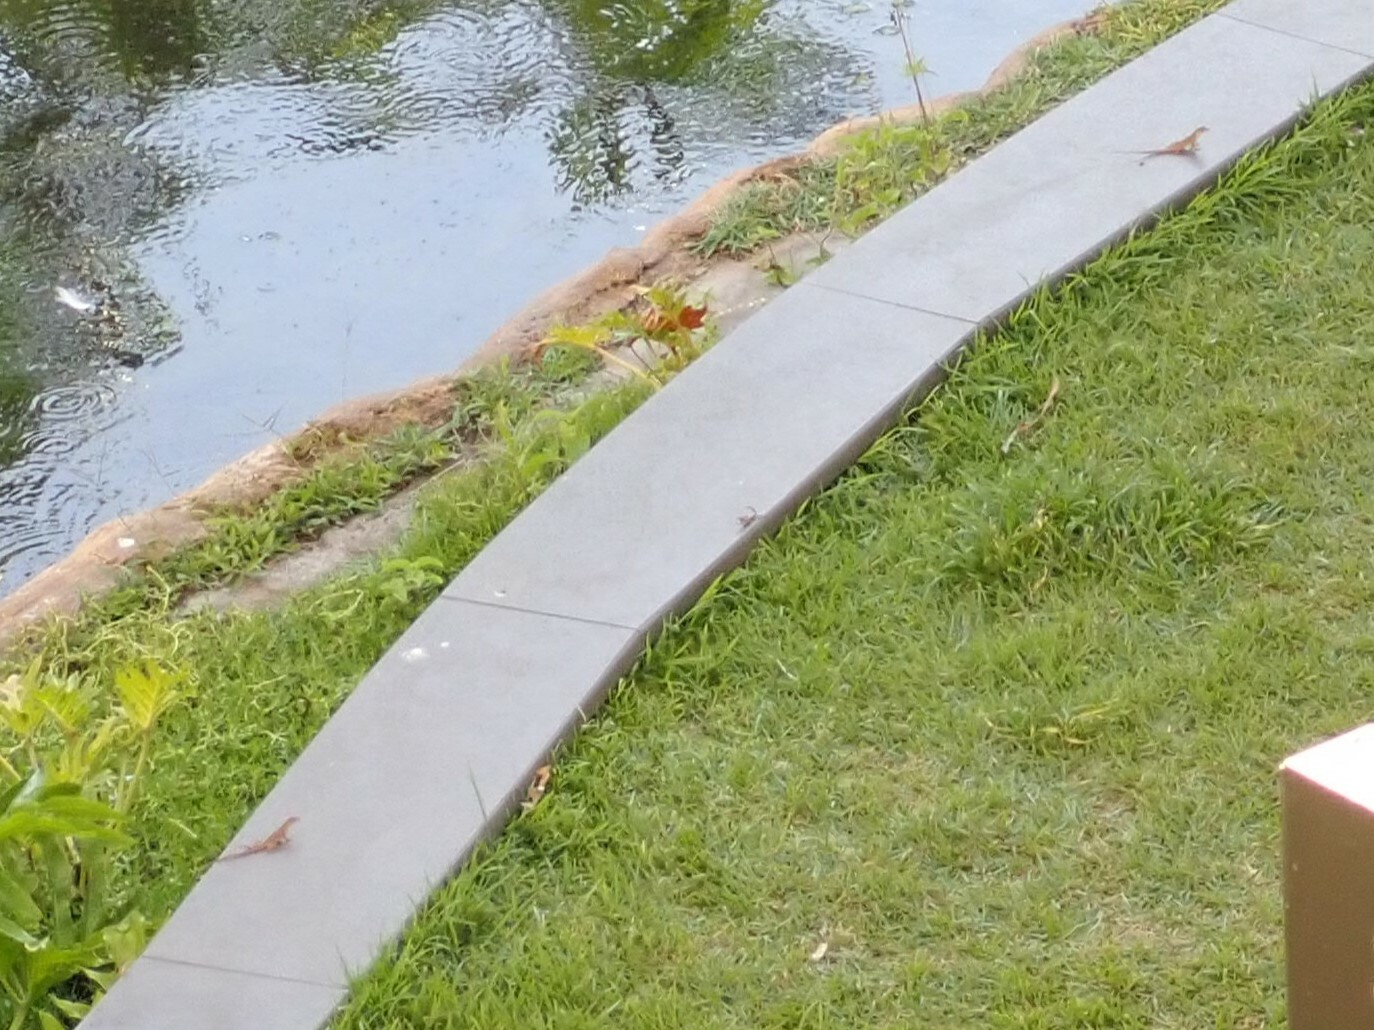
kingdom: Animalia
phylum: Chordata
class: Squamata
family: Dactyloidae
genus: Anolis
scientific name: Anolis sagrei
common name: Brown anole
